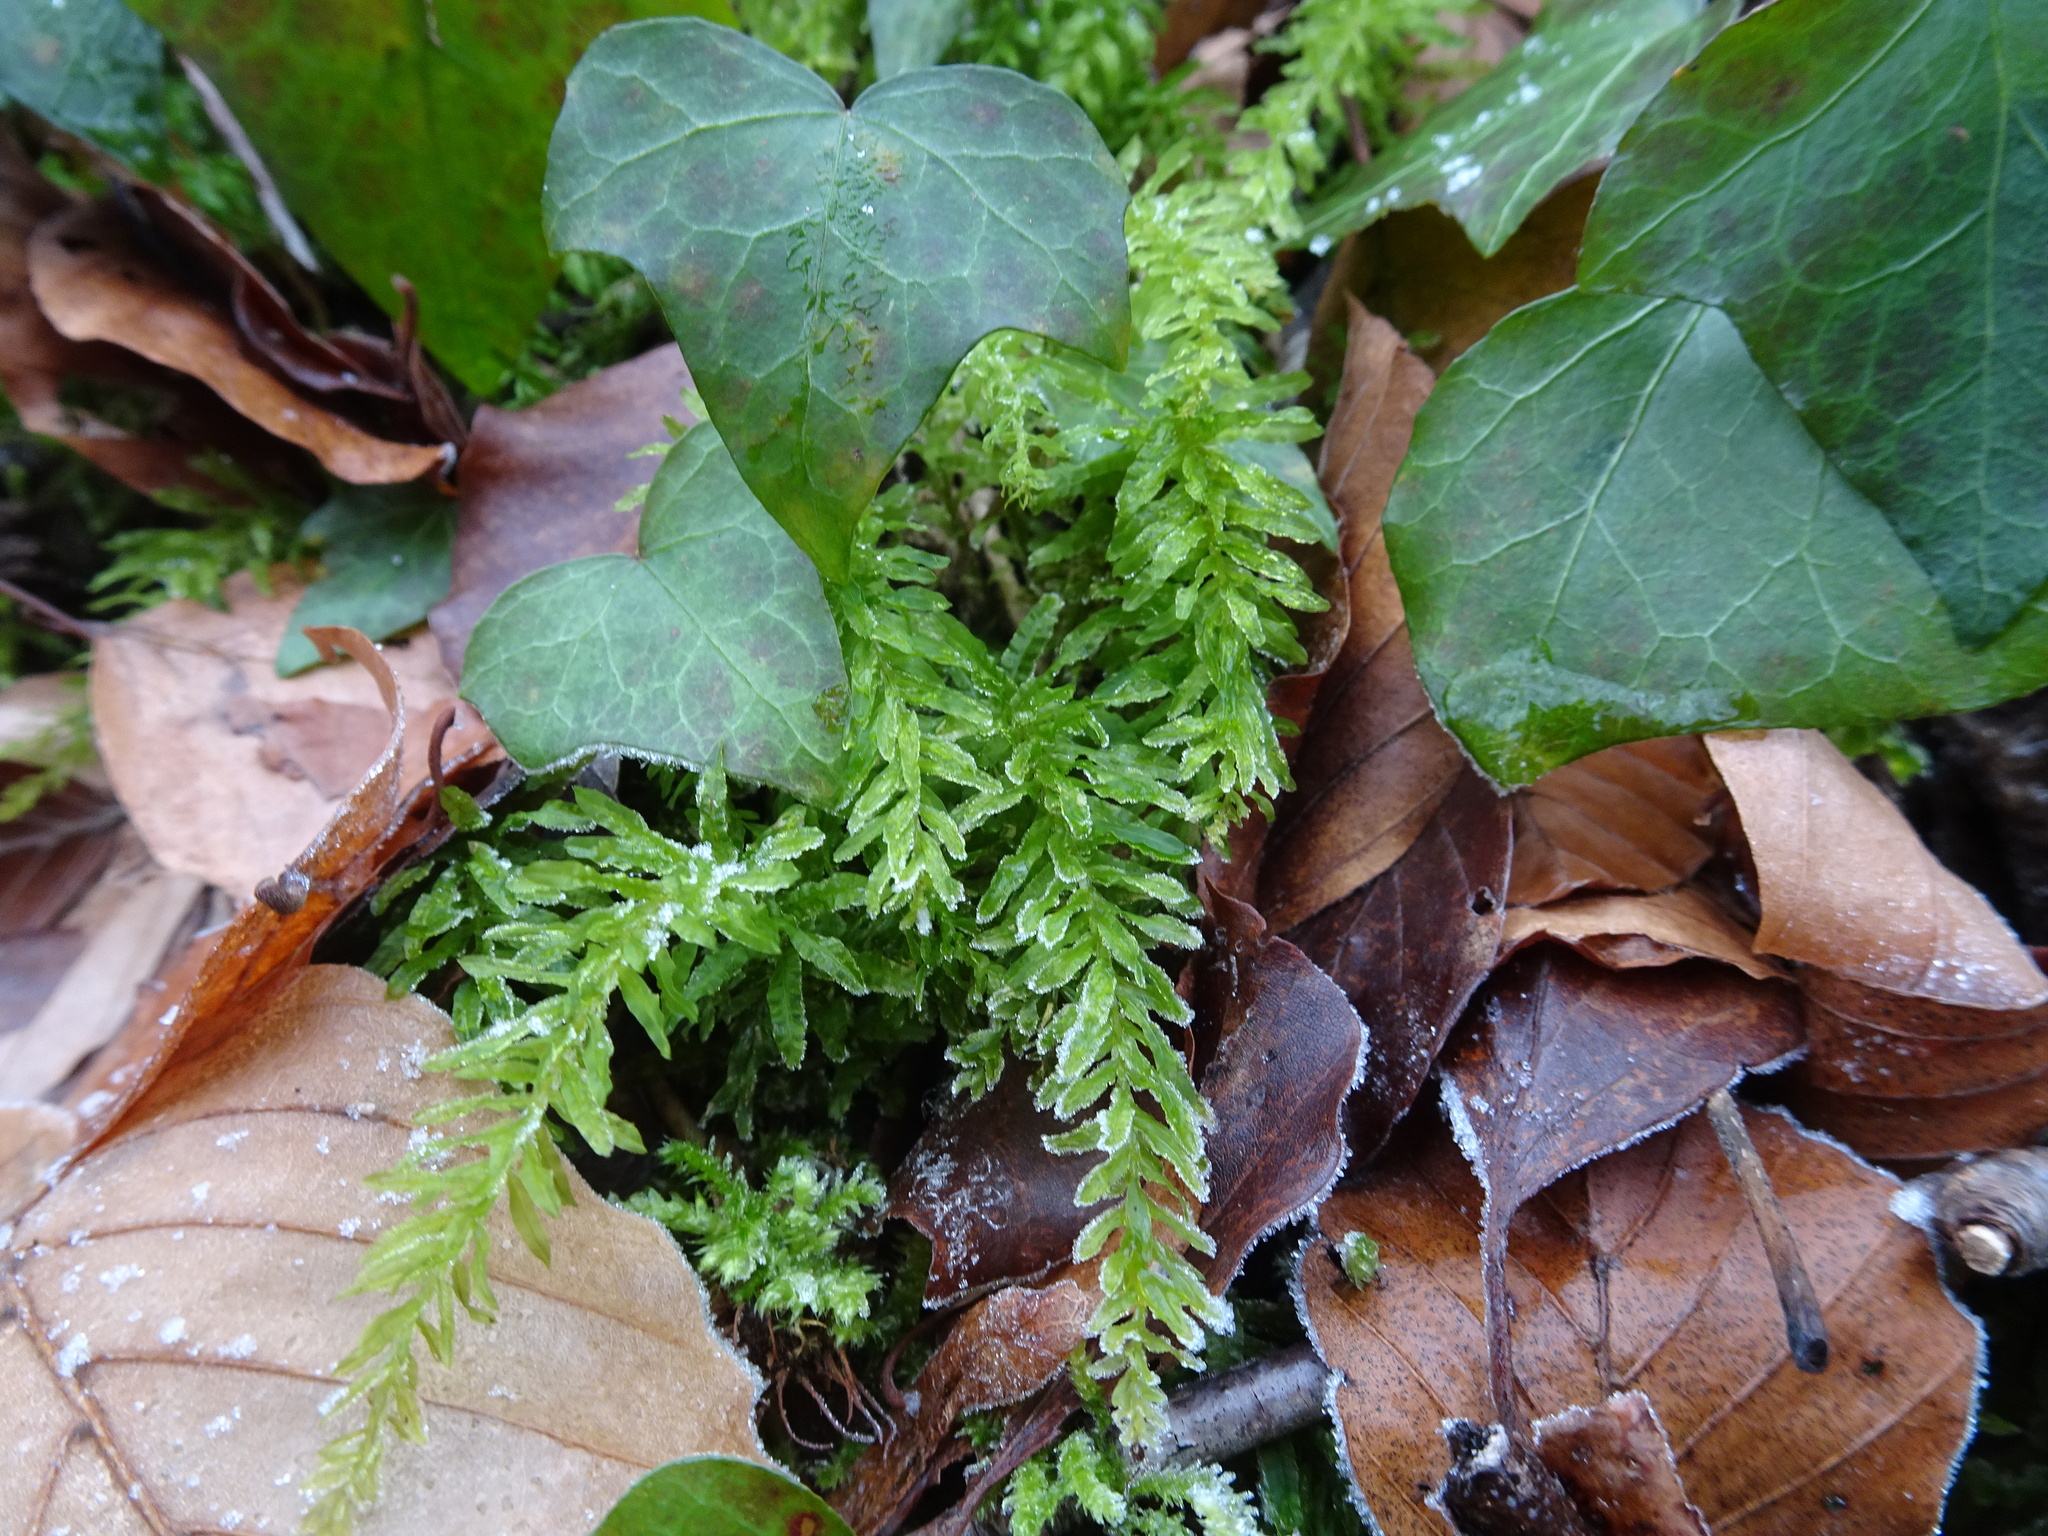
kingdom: Plantae
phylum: Bryophyta
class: Bryopsida
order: Bryales
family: Mniaceae
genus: Plagiomnium
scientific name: Plagiomnium undulatum
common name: Hart's-tongue thyme-moss
